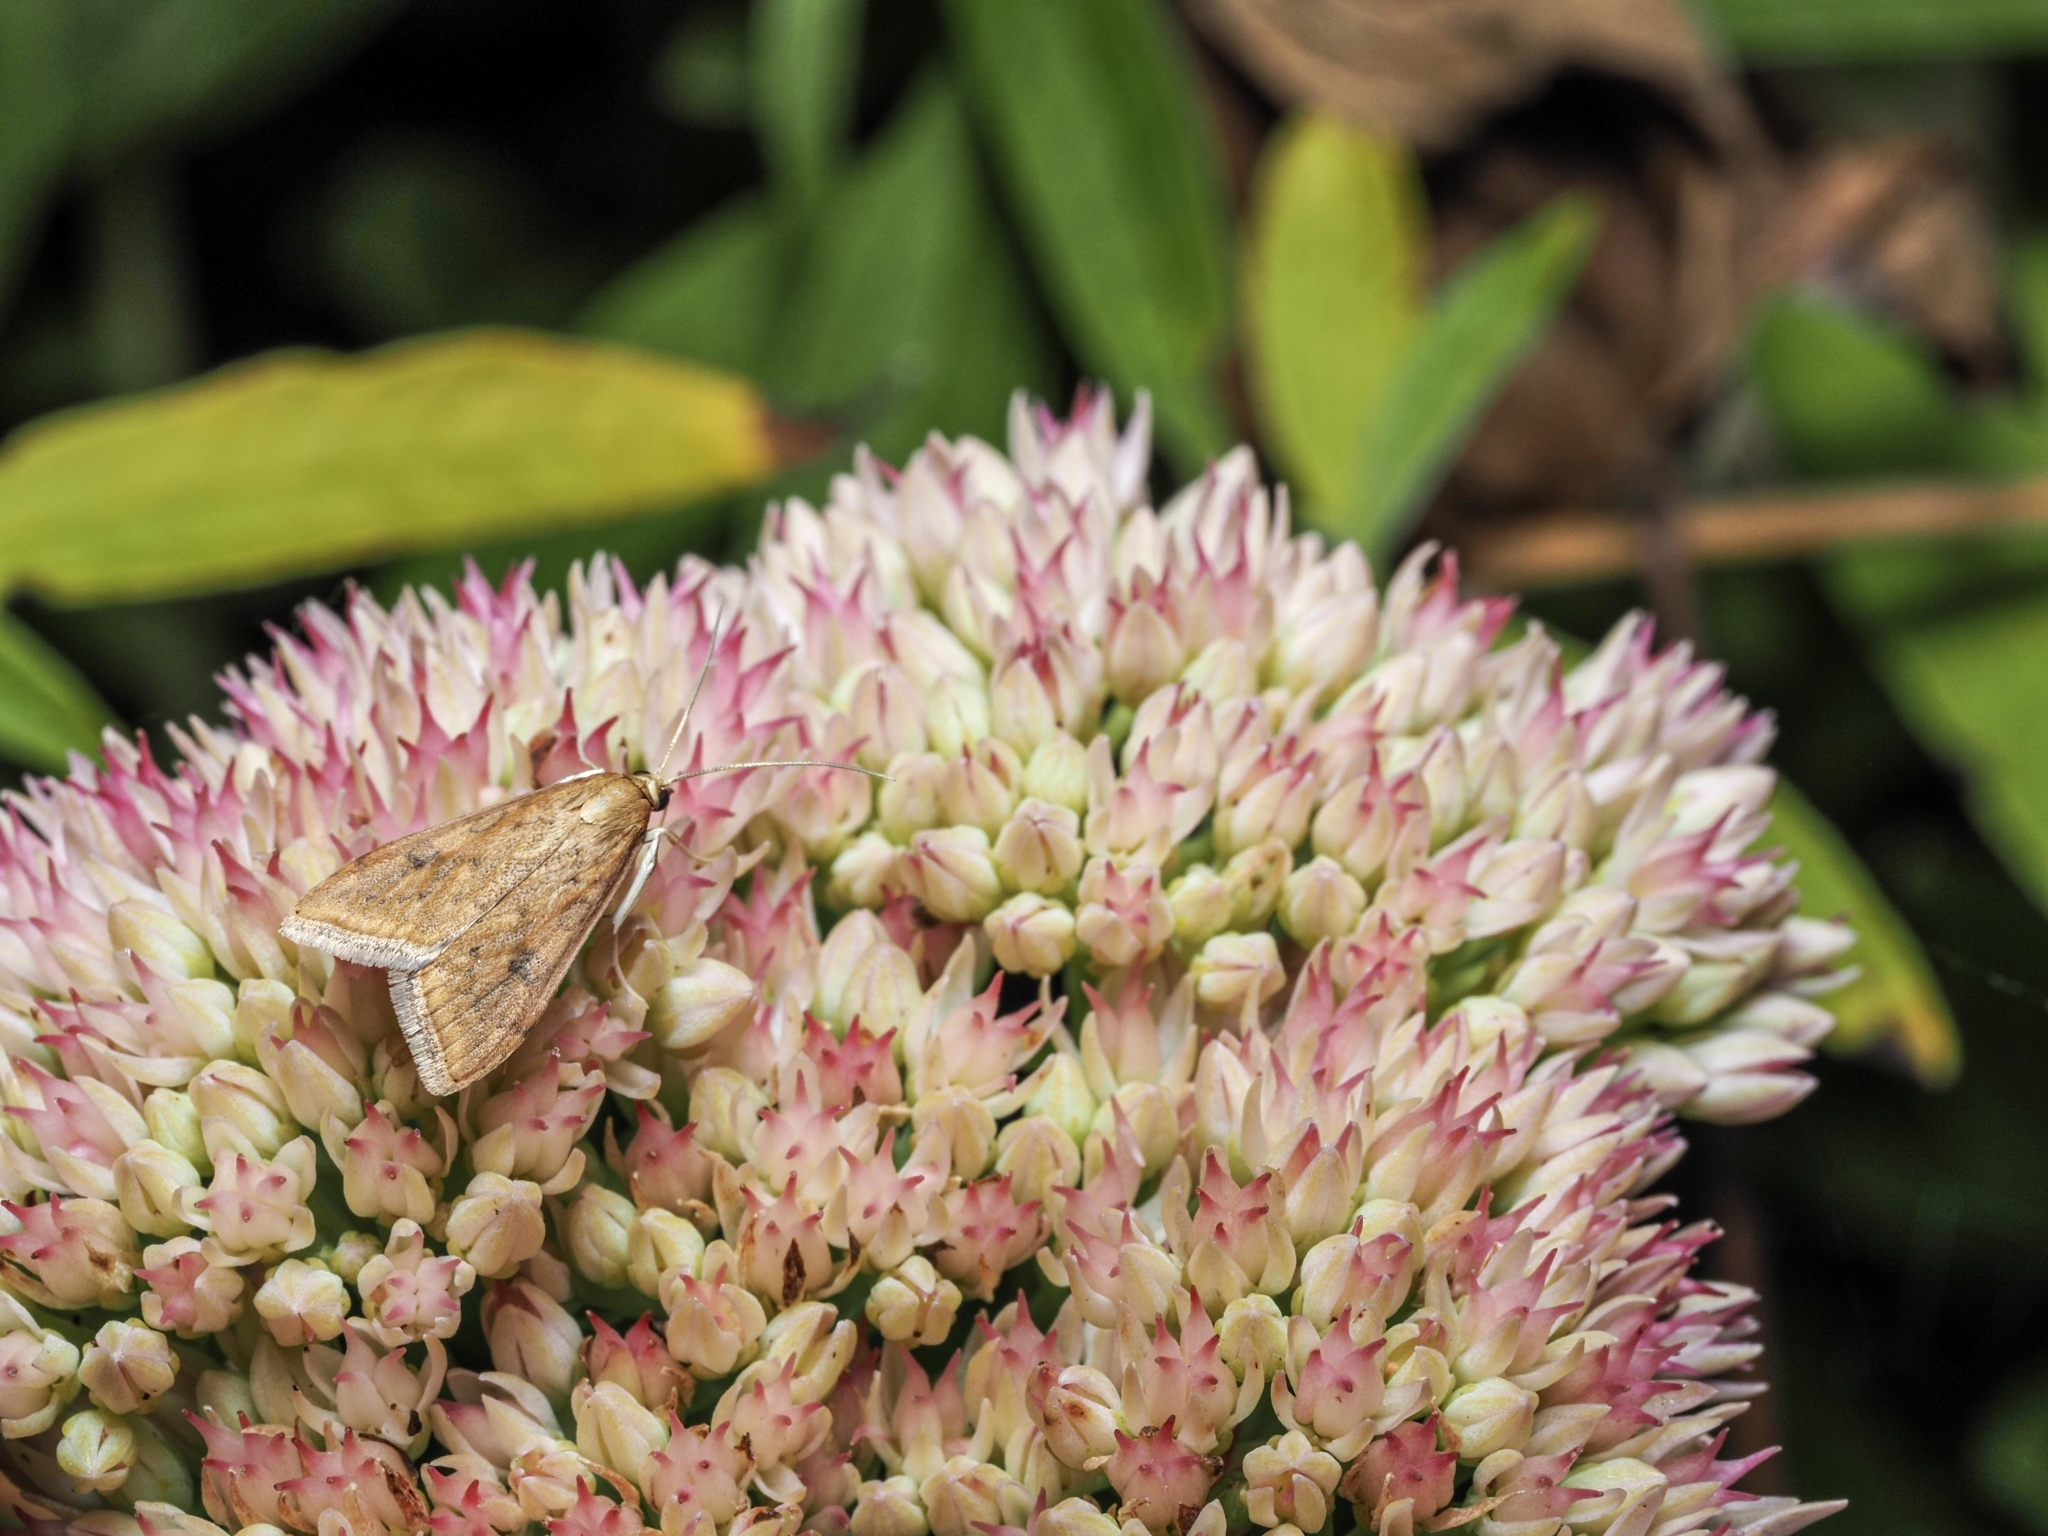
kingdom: Animalia
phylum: Arthropoda
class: Insecta
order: Lepidoptera
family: Crambidae
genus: Udea
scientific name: Udea ferrugalis
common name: Rusty dot
